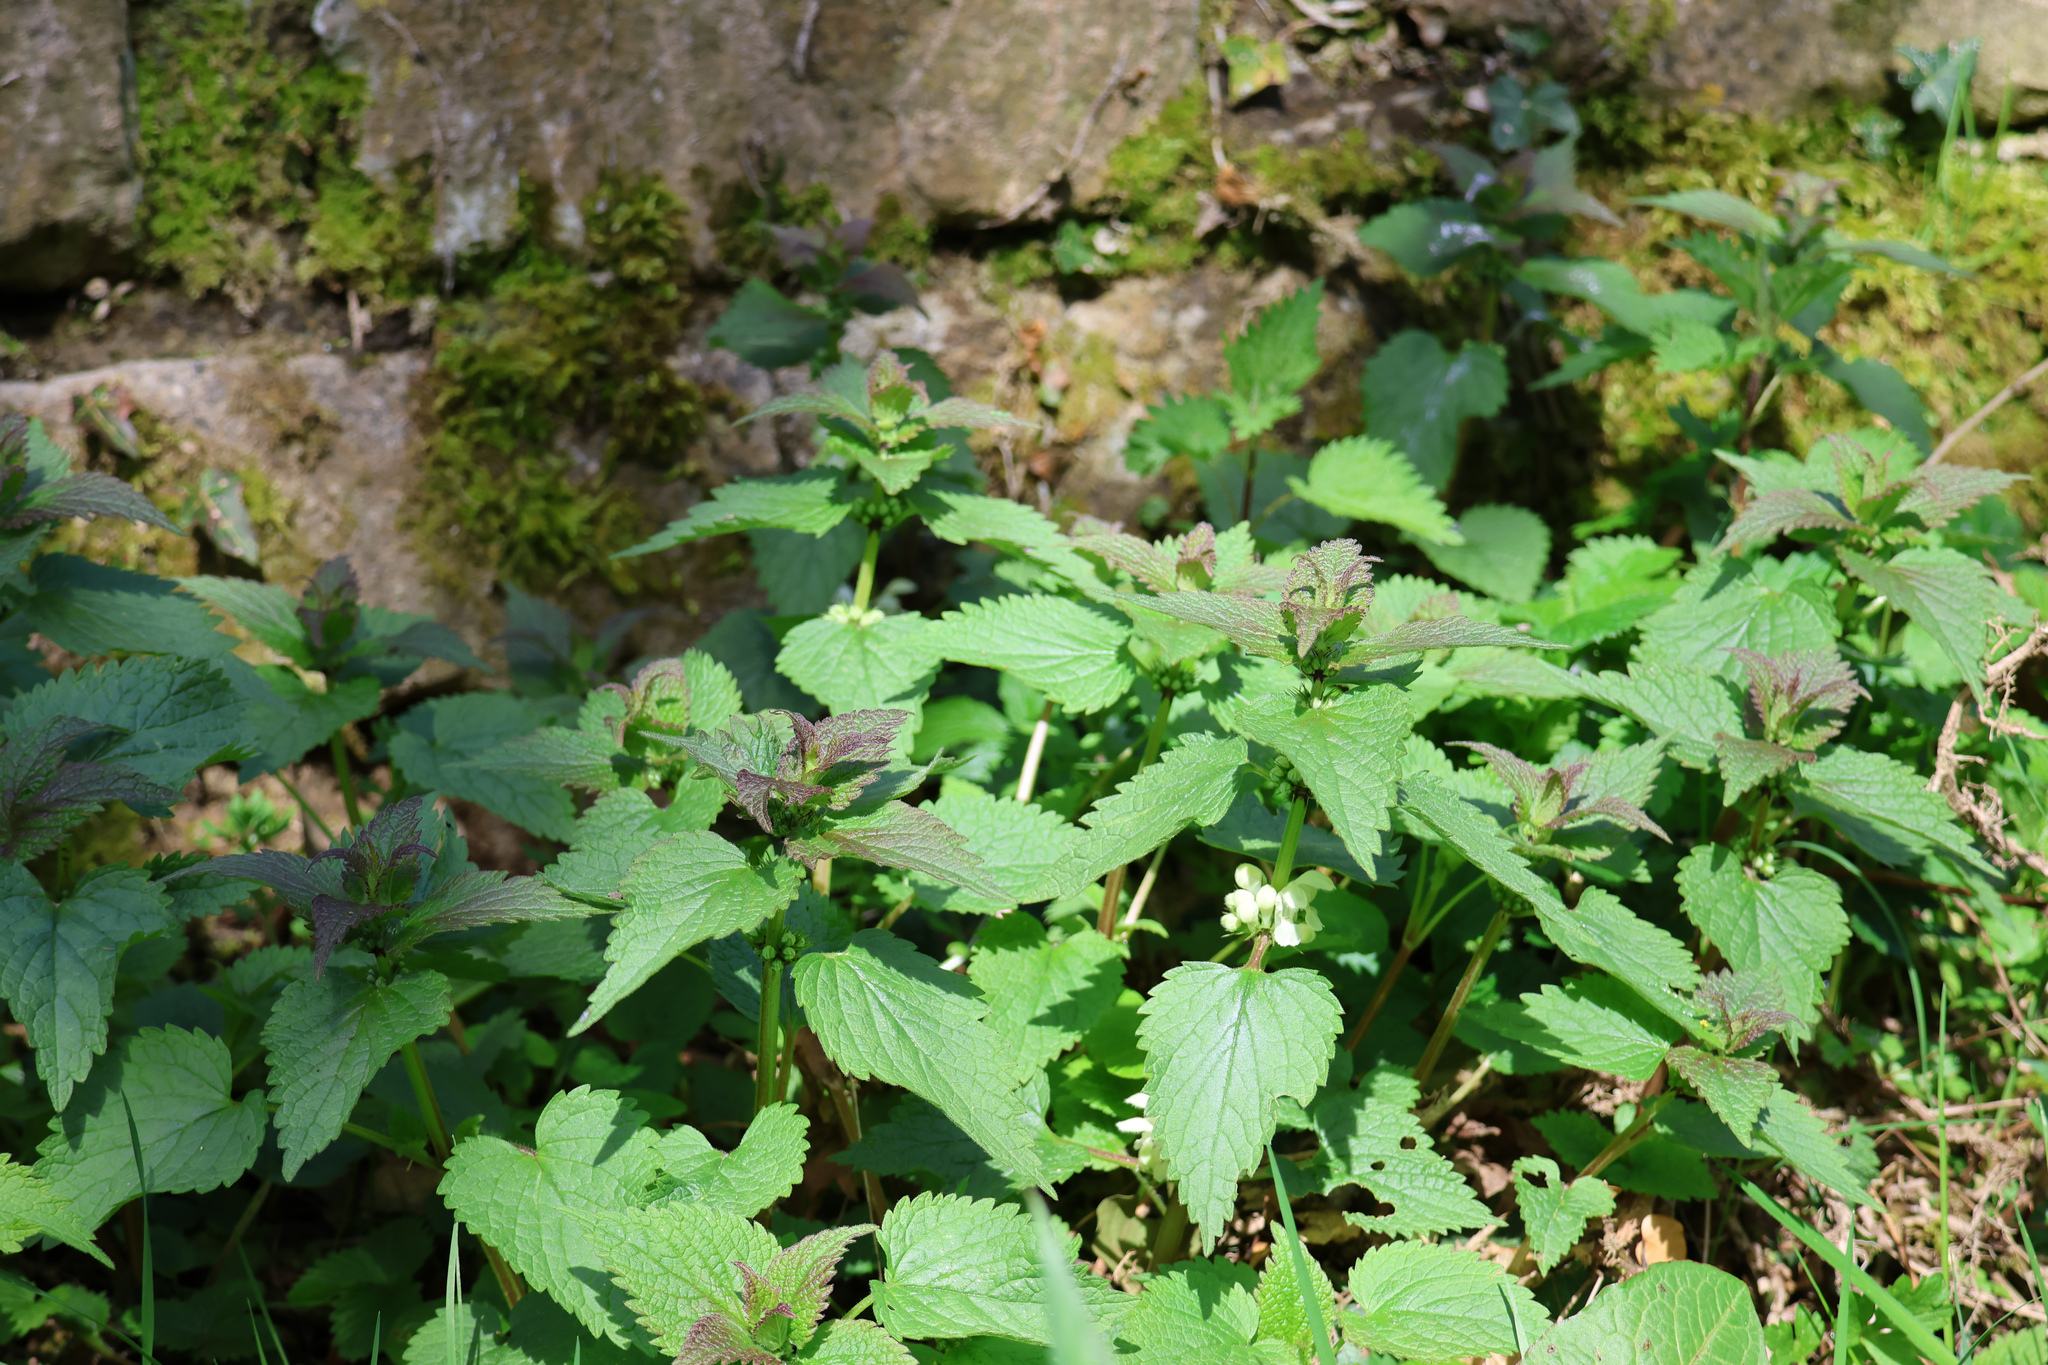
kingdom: Plantae
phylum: Tracheophyta
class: Magnoliopsida
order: Lamiales
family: Lamiaceae
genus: Lamium
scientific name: Lamium album
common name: White dead-nettle
